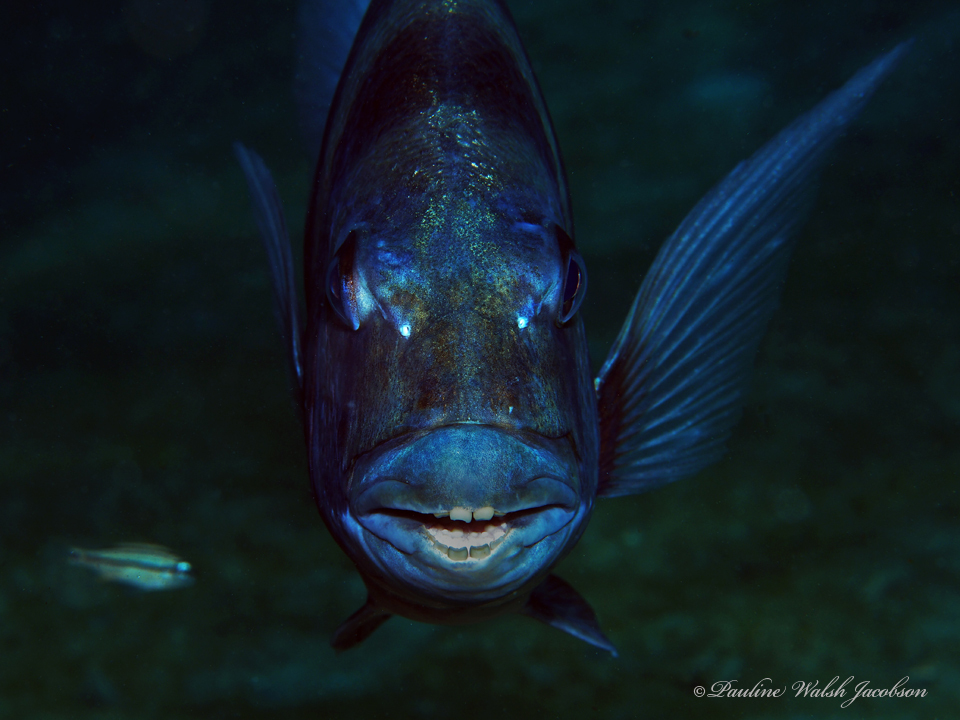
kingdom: Animalia
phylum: Chordata
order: Perciformes
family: Sparidae
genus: Archosargus
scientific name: Archosargus probatocephalus
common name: Sheepshead
